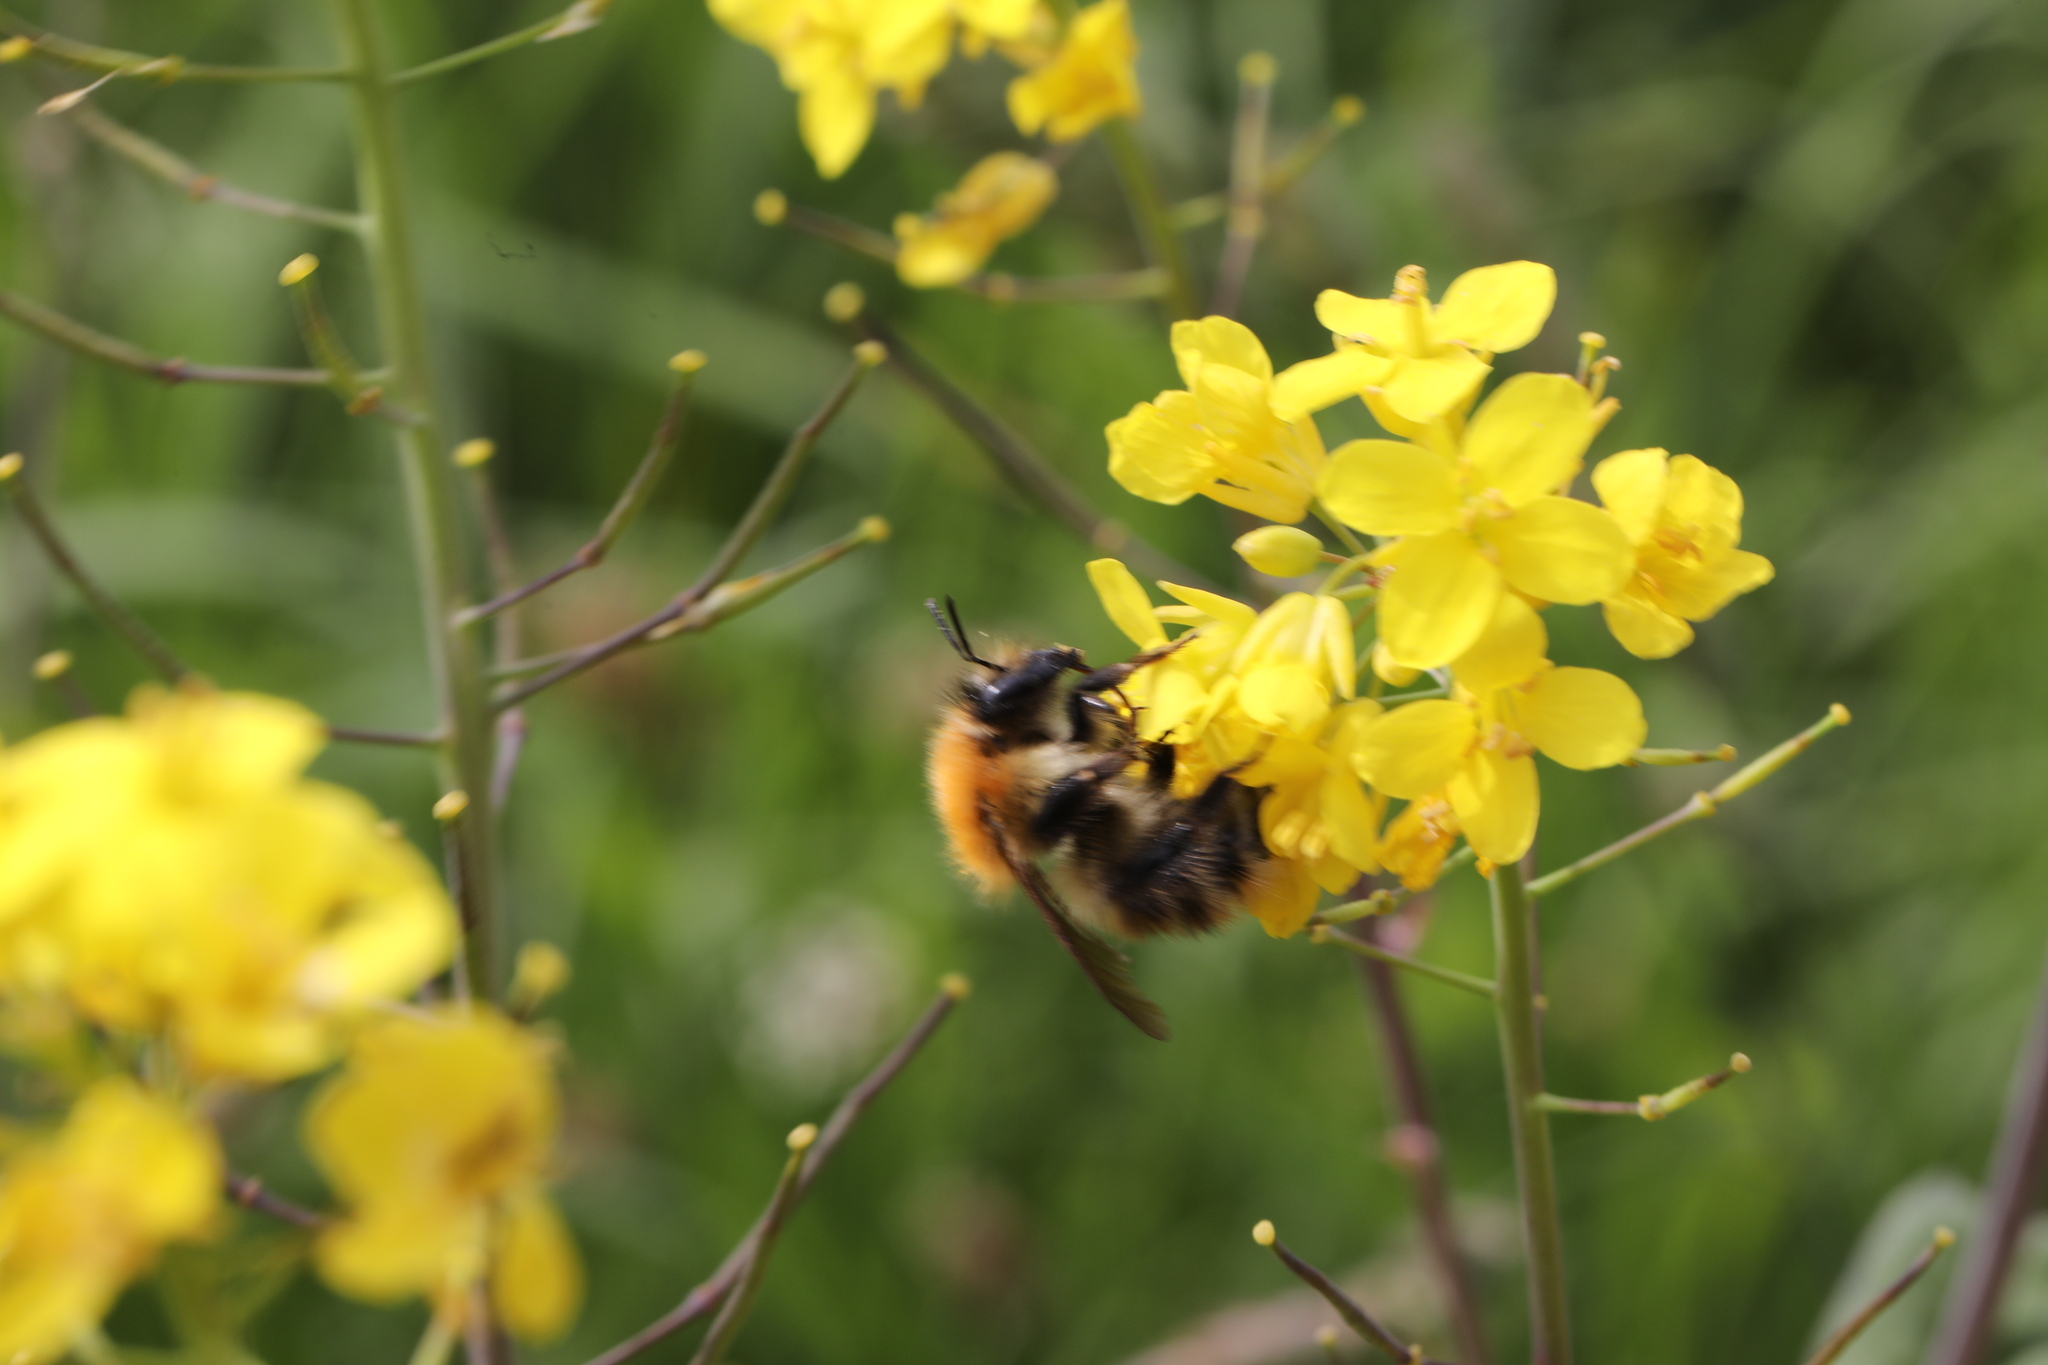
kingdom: Animalia
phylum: Arthropoda
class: Insecta
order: Hymenoptera
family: Apidae
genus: Bombus
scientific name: Bombus pascuorum
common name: Common carder bee
